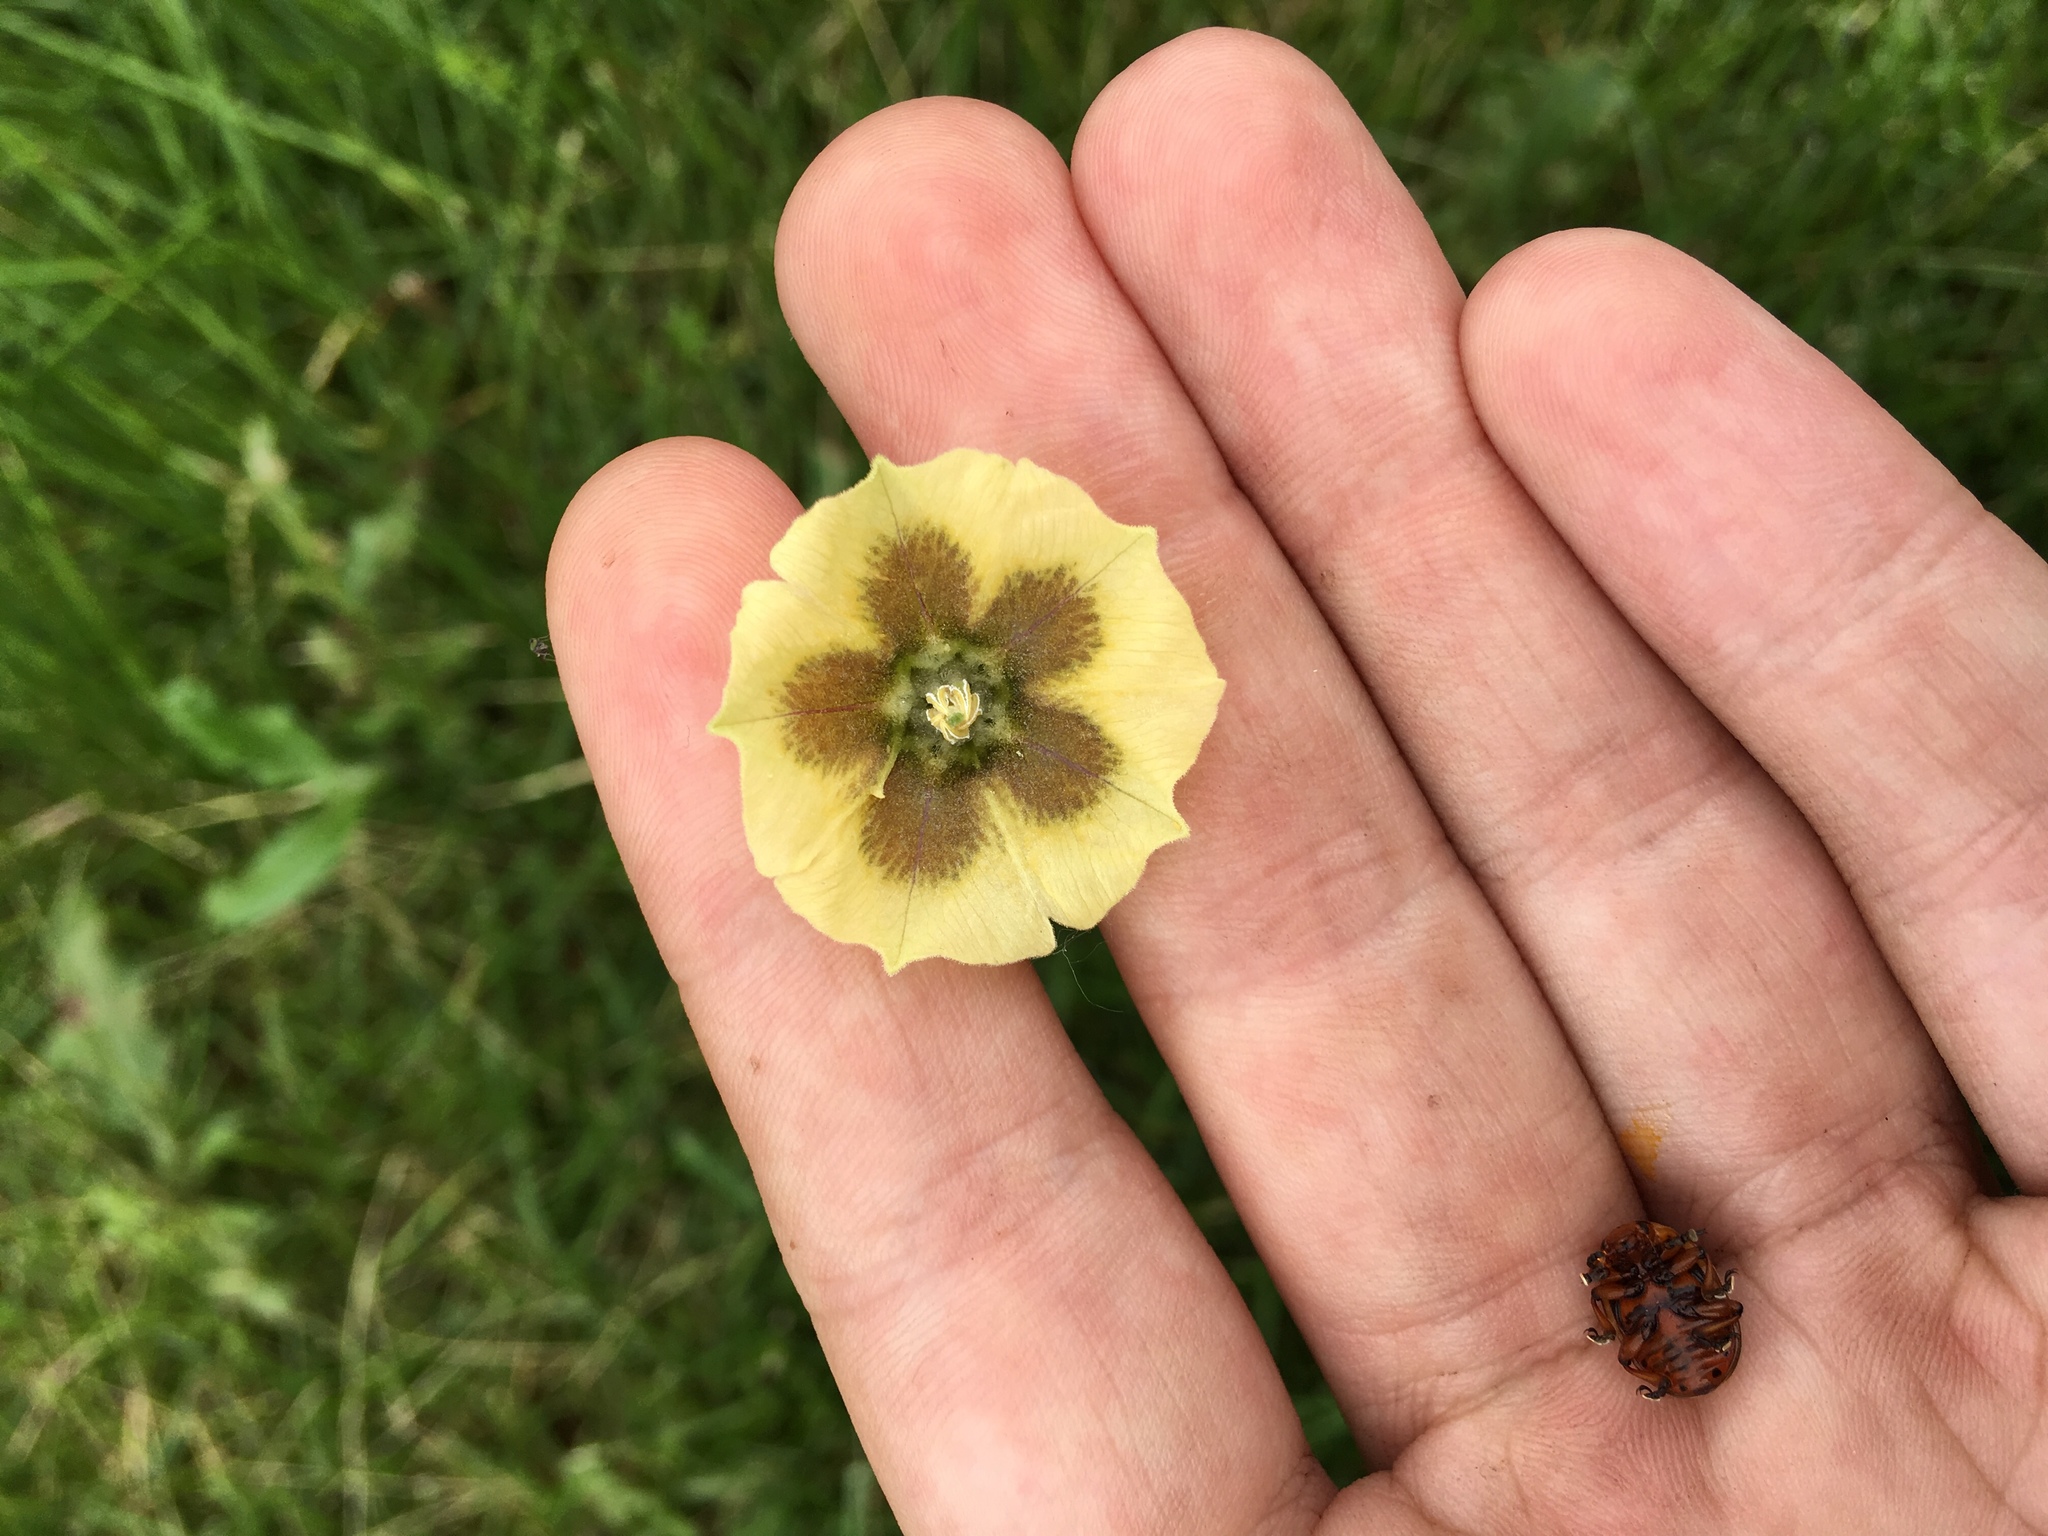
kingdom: Plantae
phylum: Tracheophyta
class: Magnoliopsida
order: Solanales
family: Solanaceae
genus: Physalis
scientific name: Physalis virginiana
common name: Virginia ground-cherry
